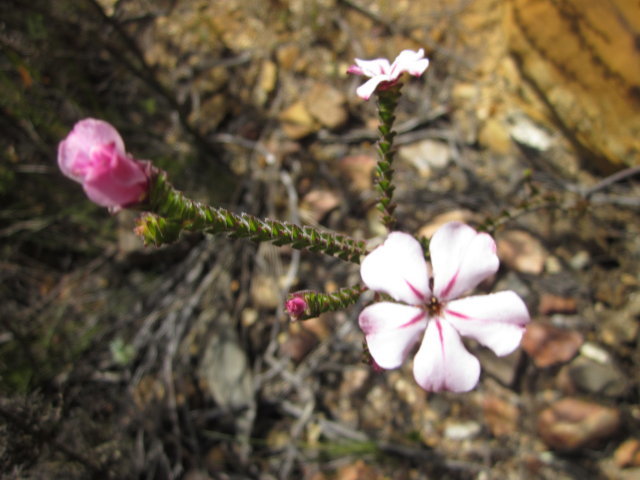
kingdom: Plantae
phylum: Tracheophyta
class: Magnoliopsida
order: Sapindales
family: Rutaceae
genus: Acmadenia
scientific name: Acmadenia tetragona
